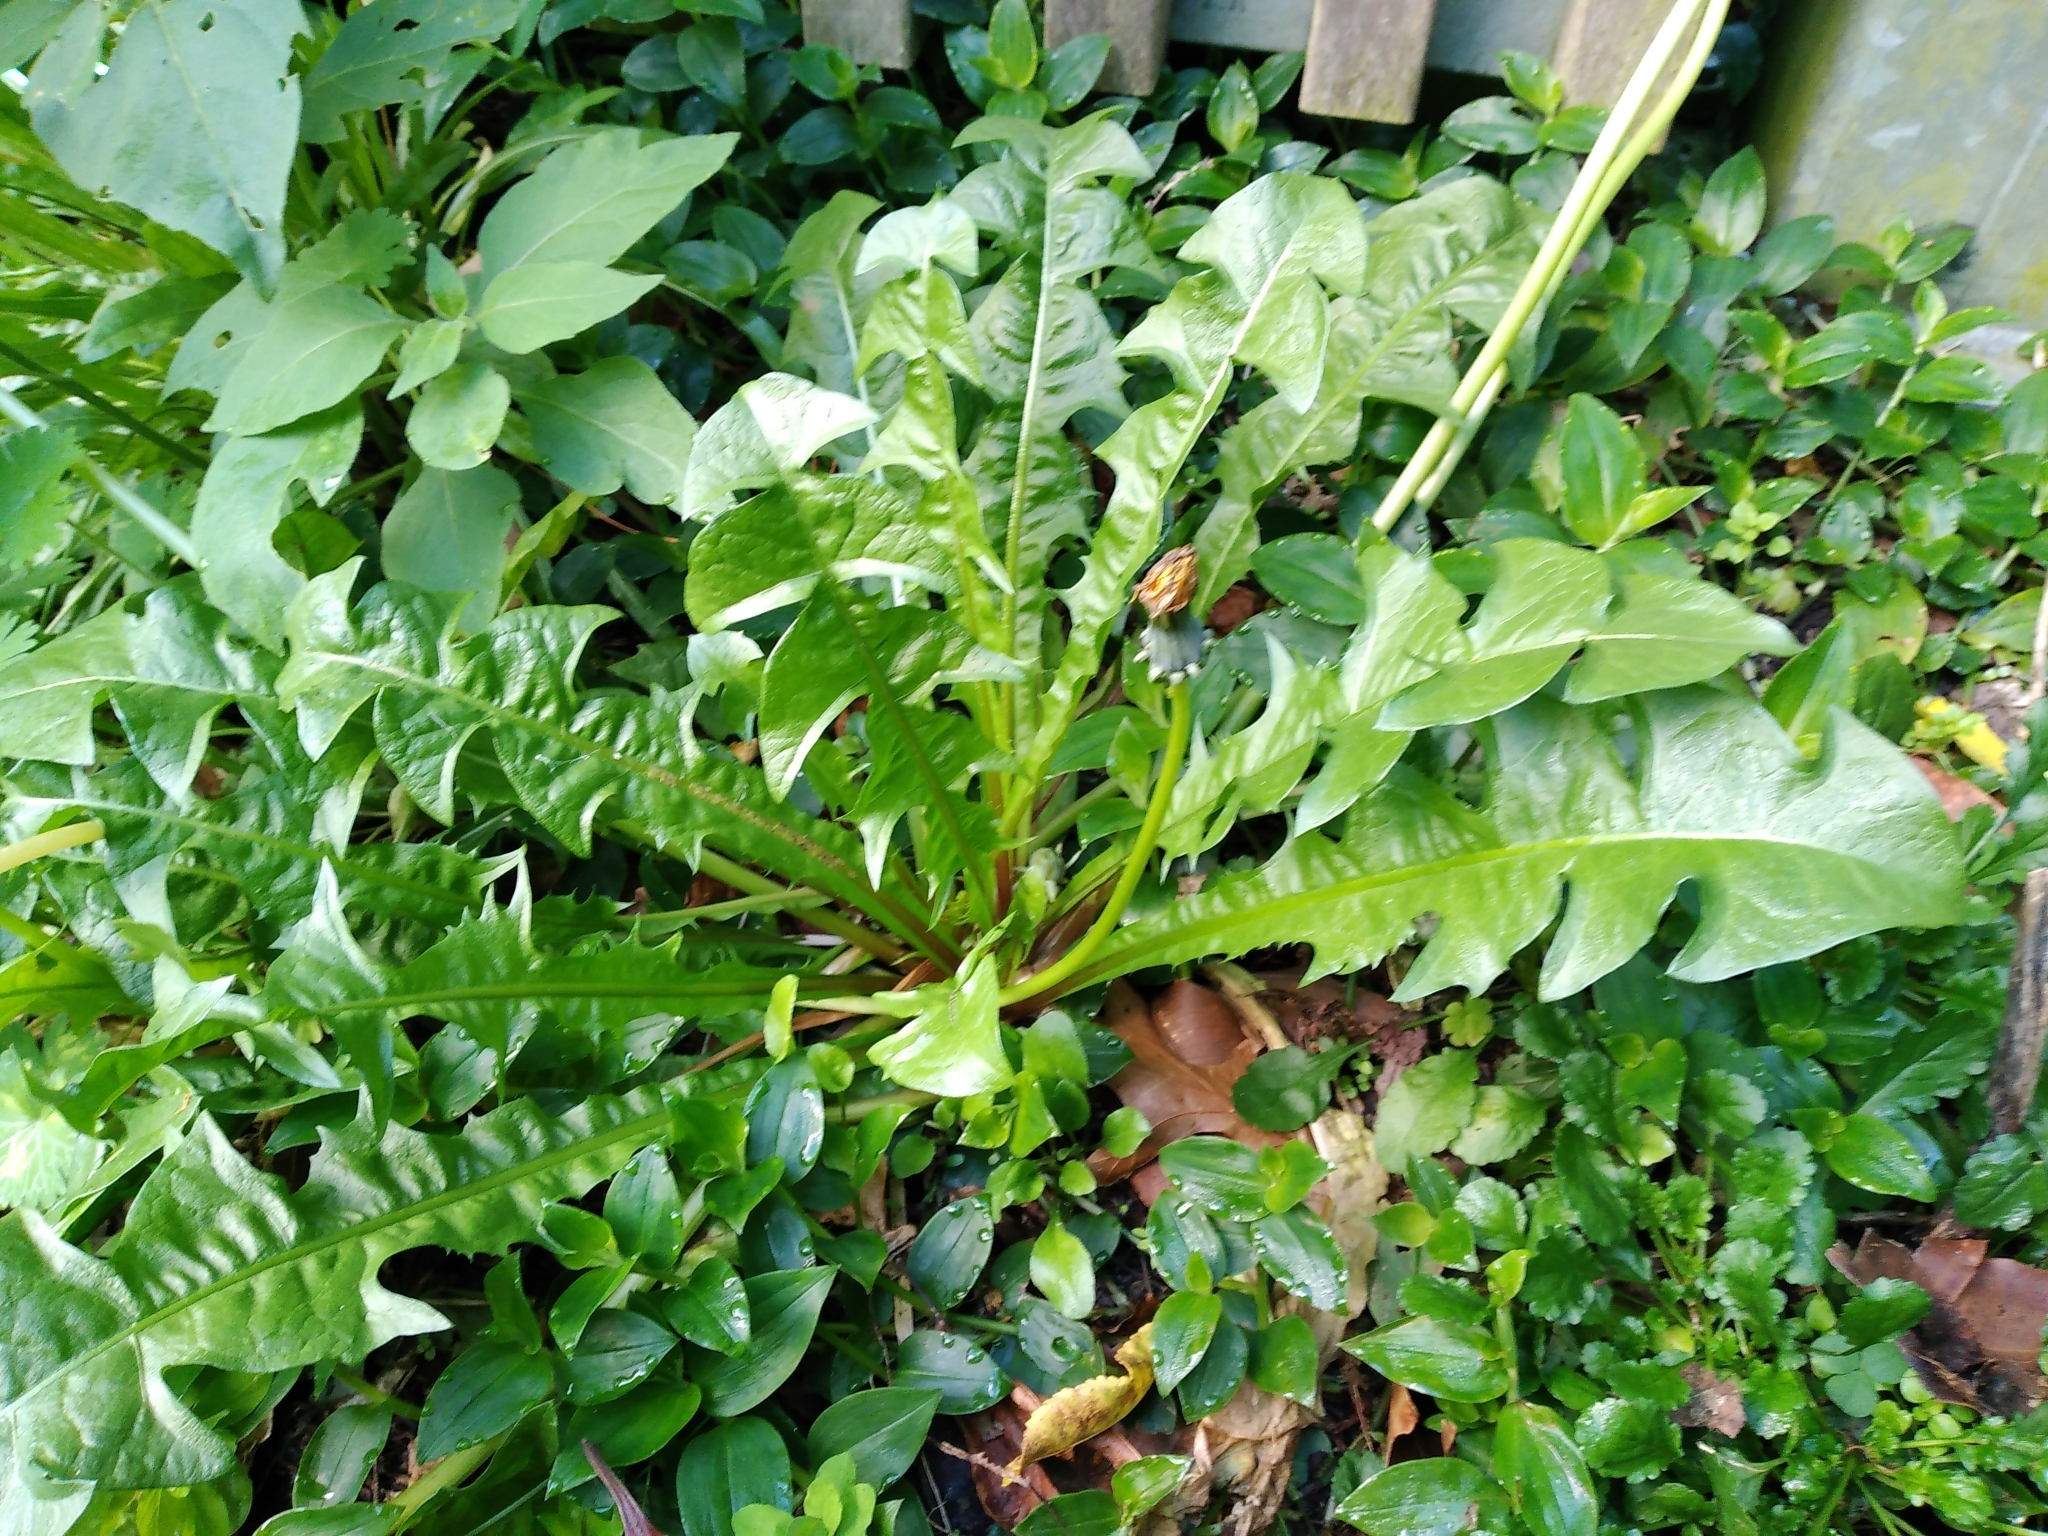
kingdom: Plantae
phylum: Tracheophyta
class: Magnoliopsida
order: Asterales
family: Asteraceae
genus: Taraxacum
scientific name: Taraxacum officinale
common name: Common dandelion
